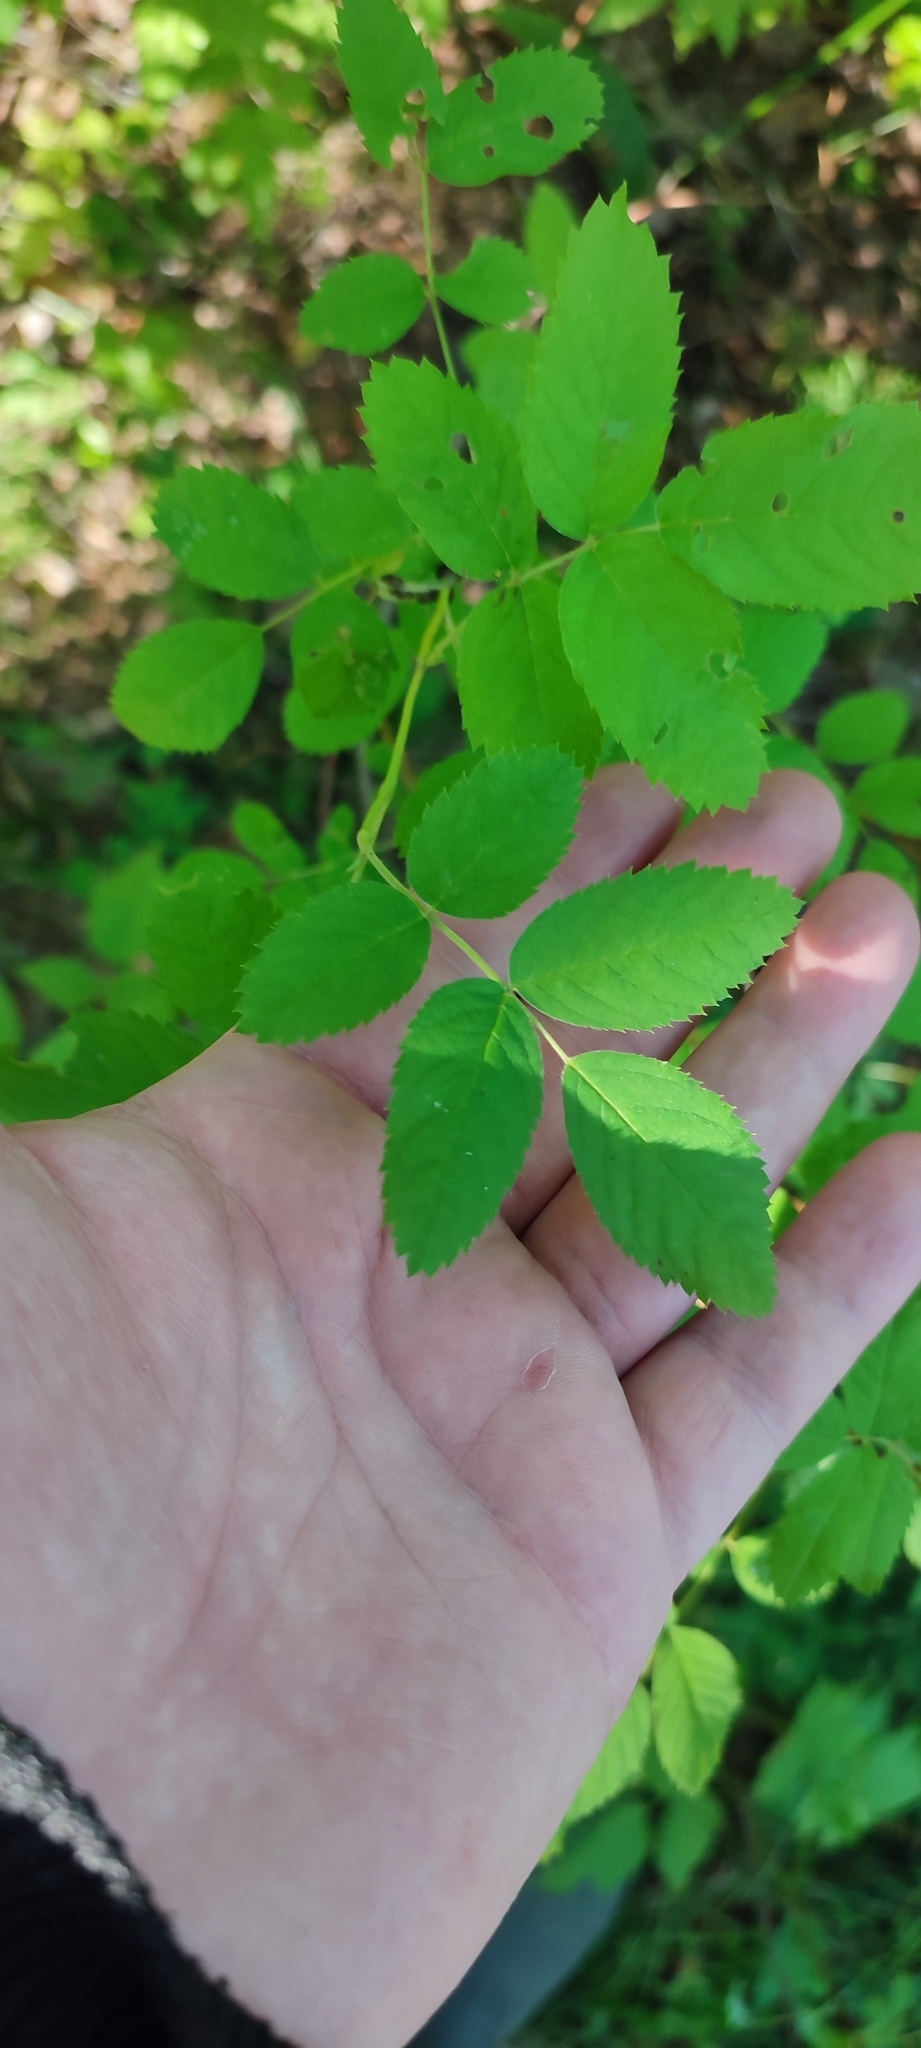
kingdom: Plantae
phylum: Tracheophyta
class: Magnoliopsida
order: Rosales
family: Rosaceae
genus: Rosa
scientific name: Rosa majalis
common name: Cinnamon rose
